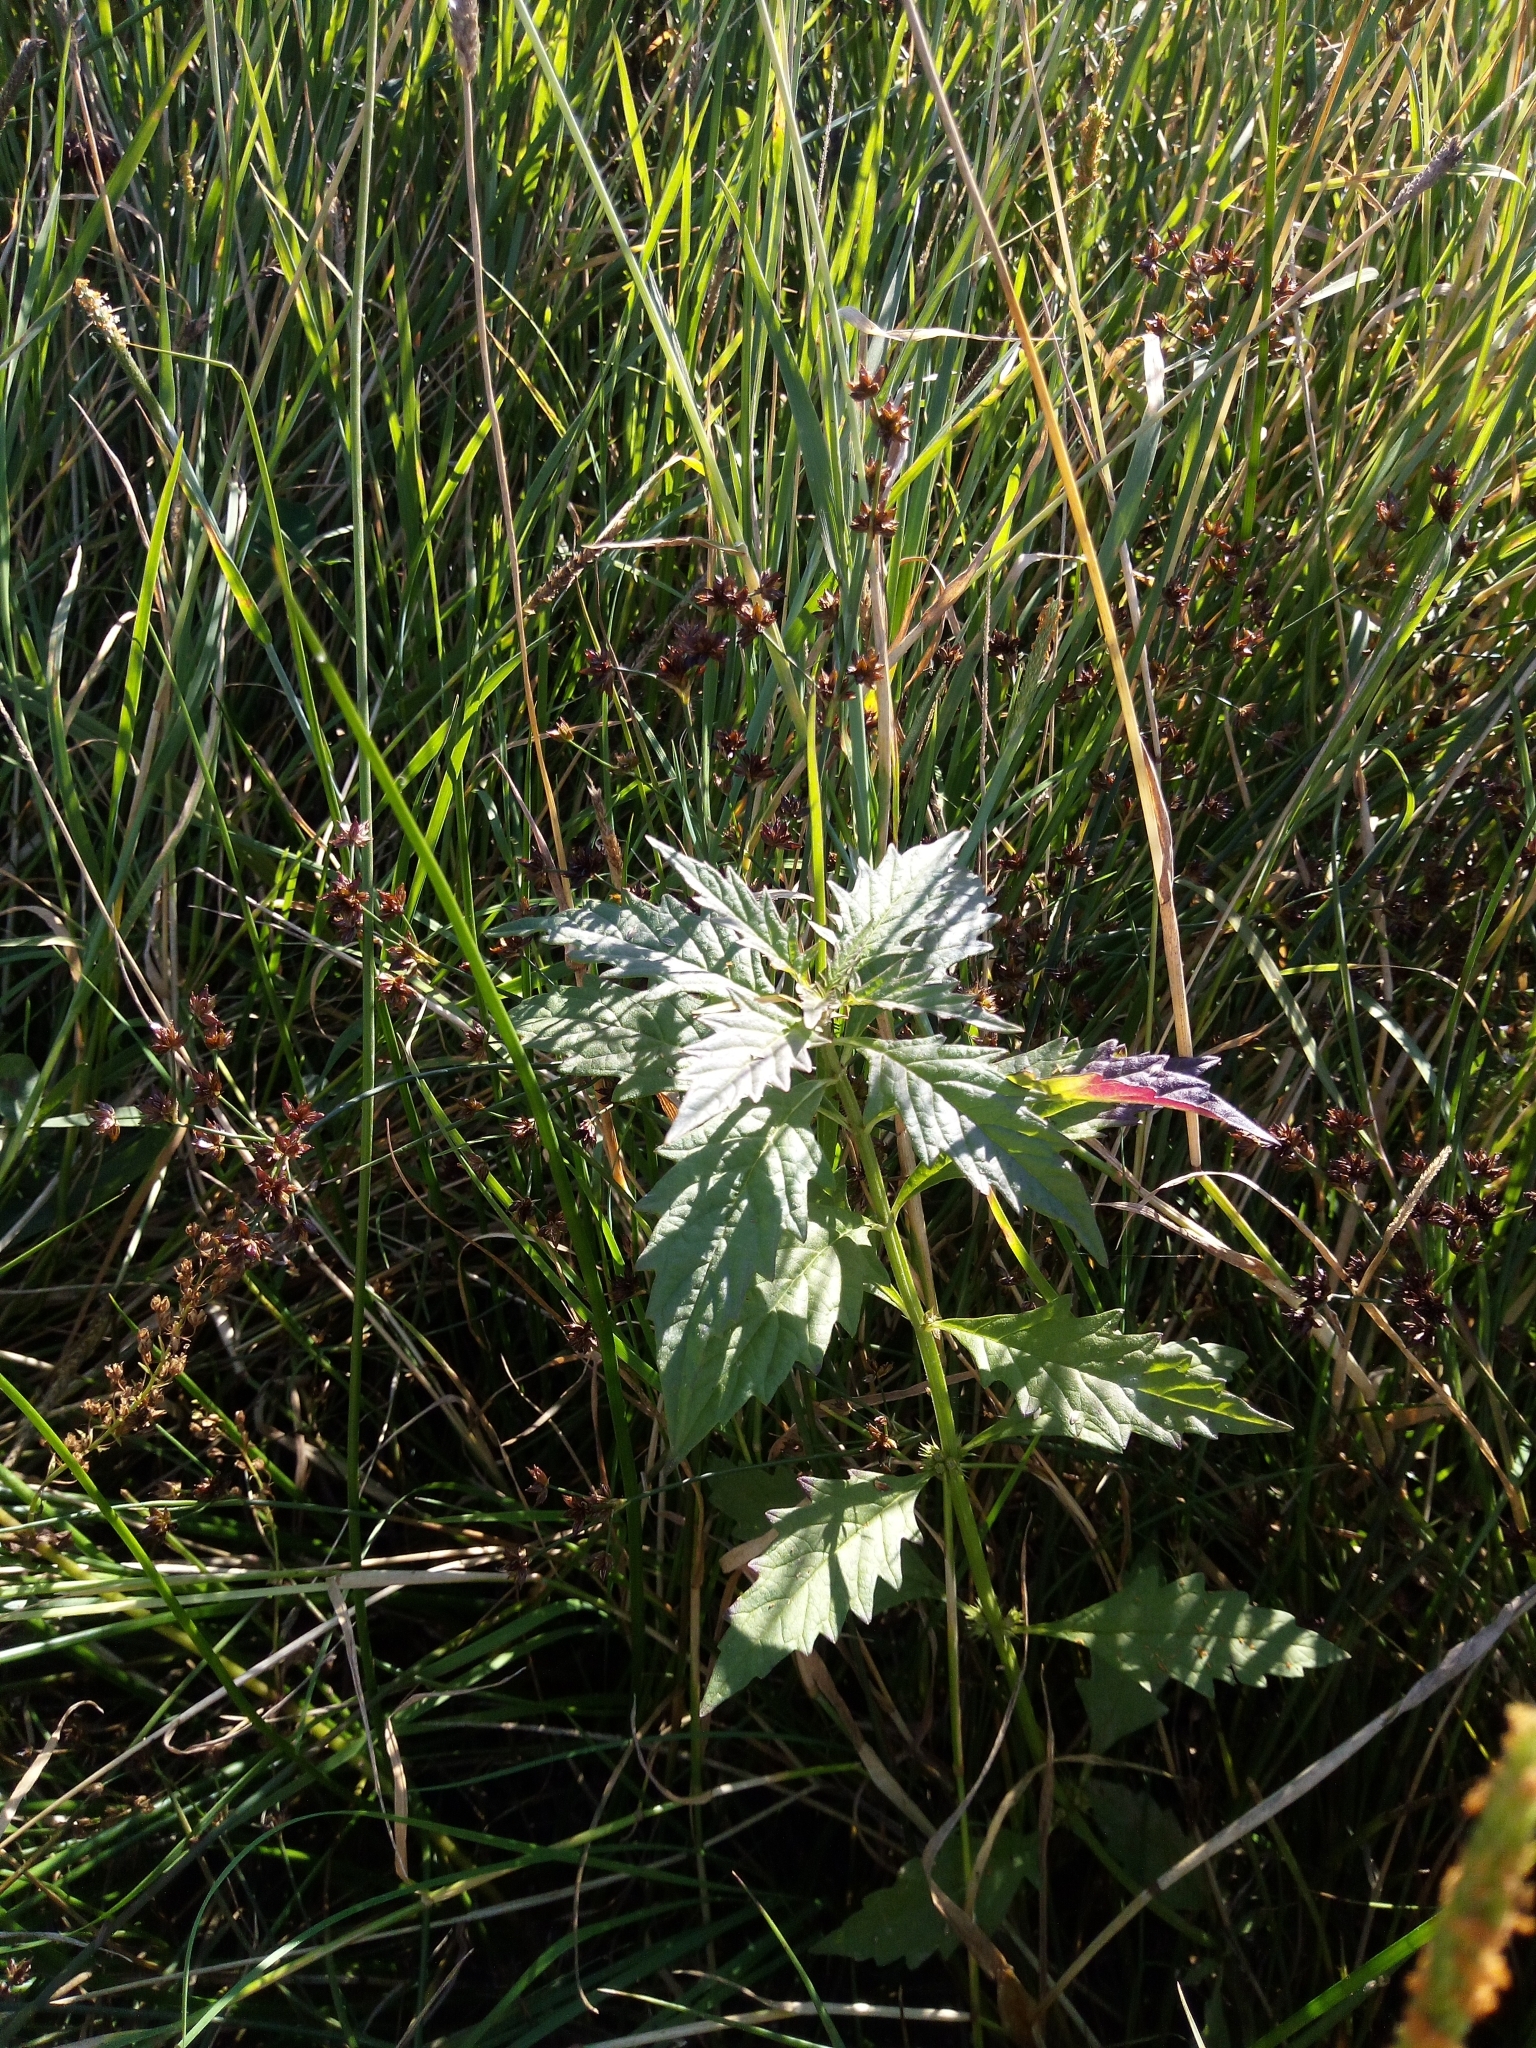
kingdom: Plantae
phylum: Tracheophyta
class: Magnoliopsida
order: Lamiales
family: Lamiaceae
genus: Lycopus
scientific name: Lycopus europaeus
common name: European bugleweed
